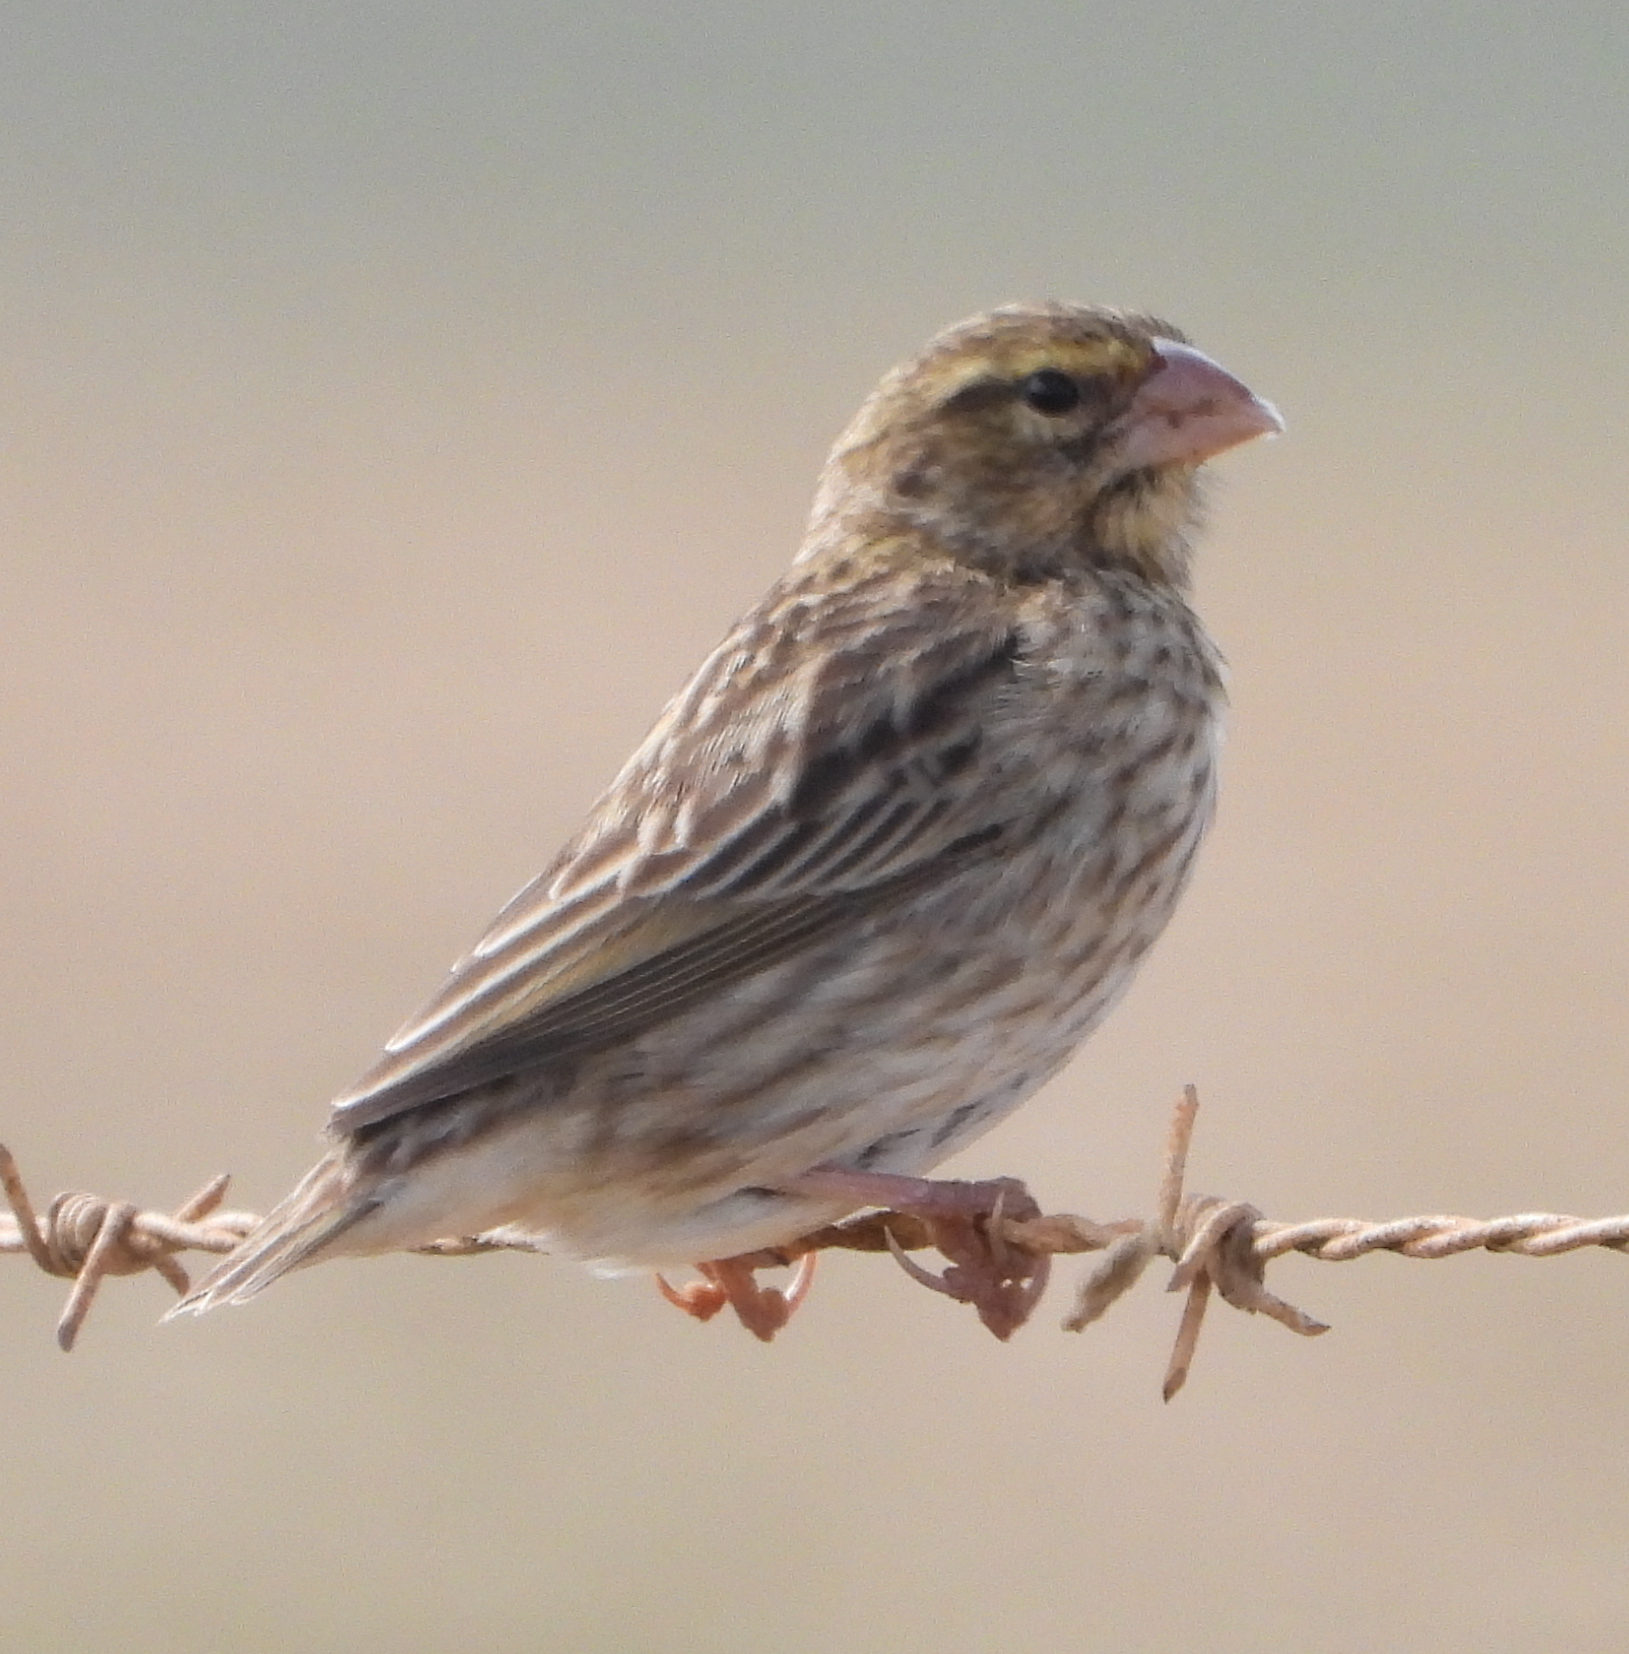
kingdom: Animalia
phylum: Chordata
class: Aves
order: Passeriformes
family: Ploceidae
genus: Euplectes
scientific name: Euplectes orix
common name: Southern red bishop
